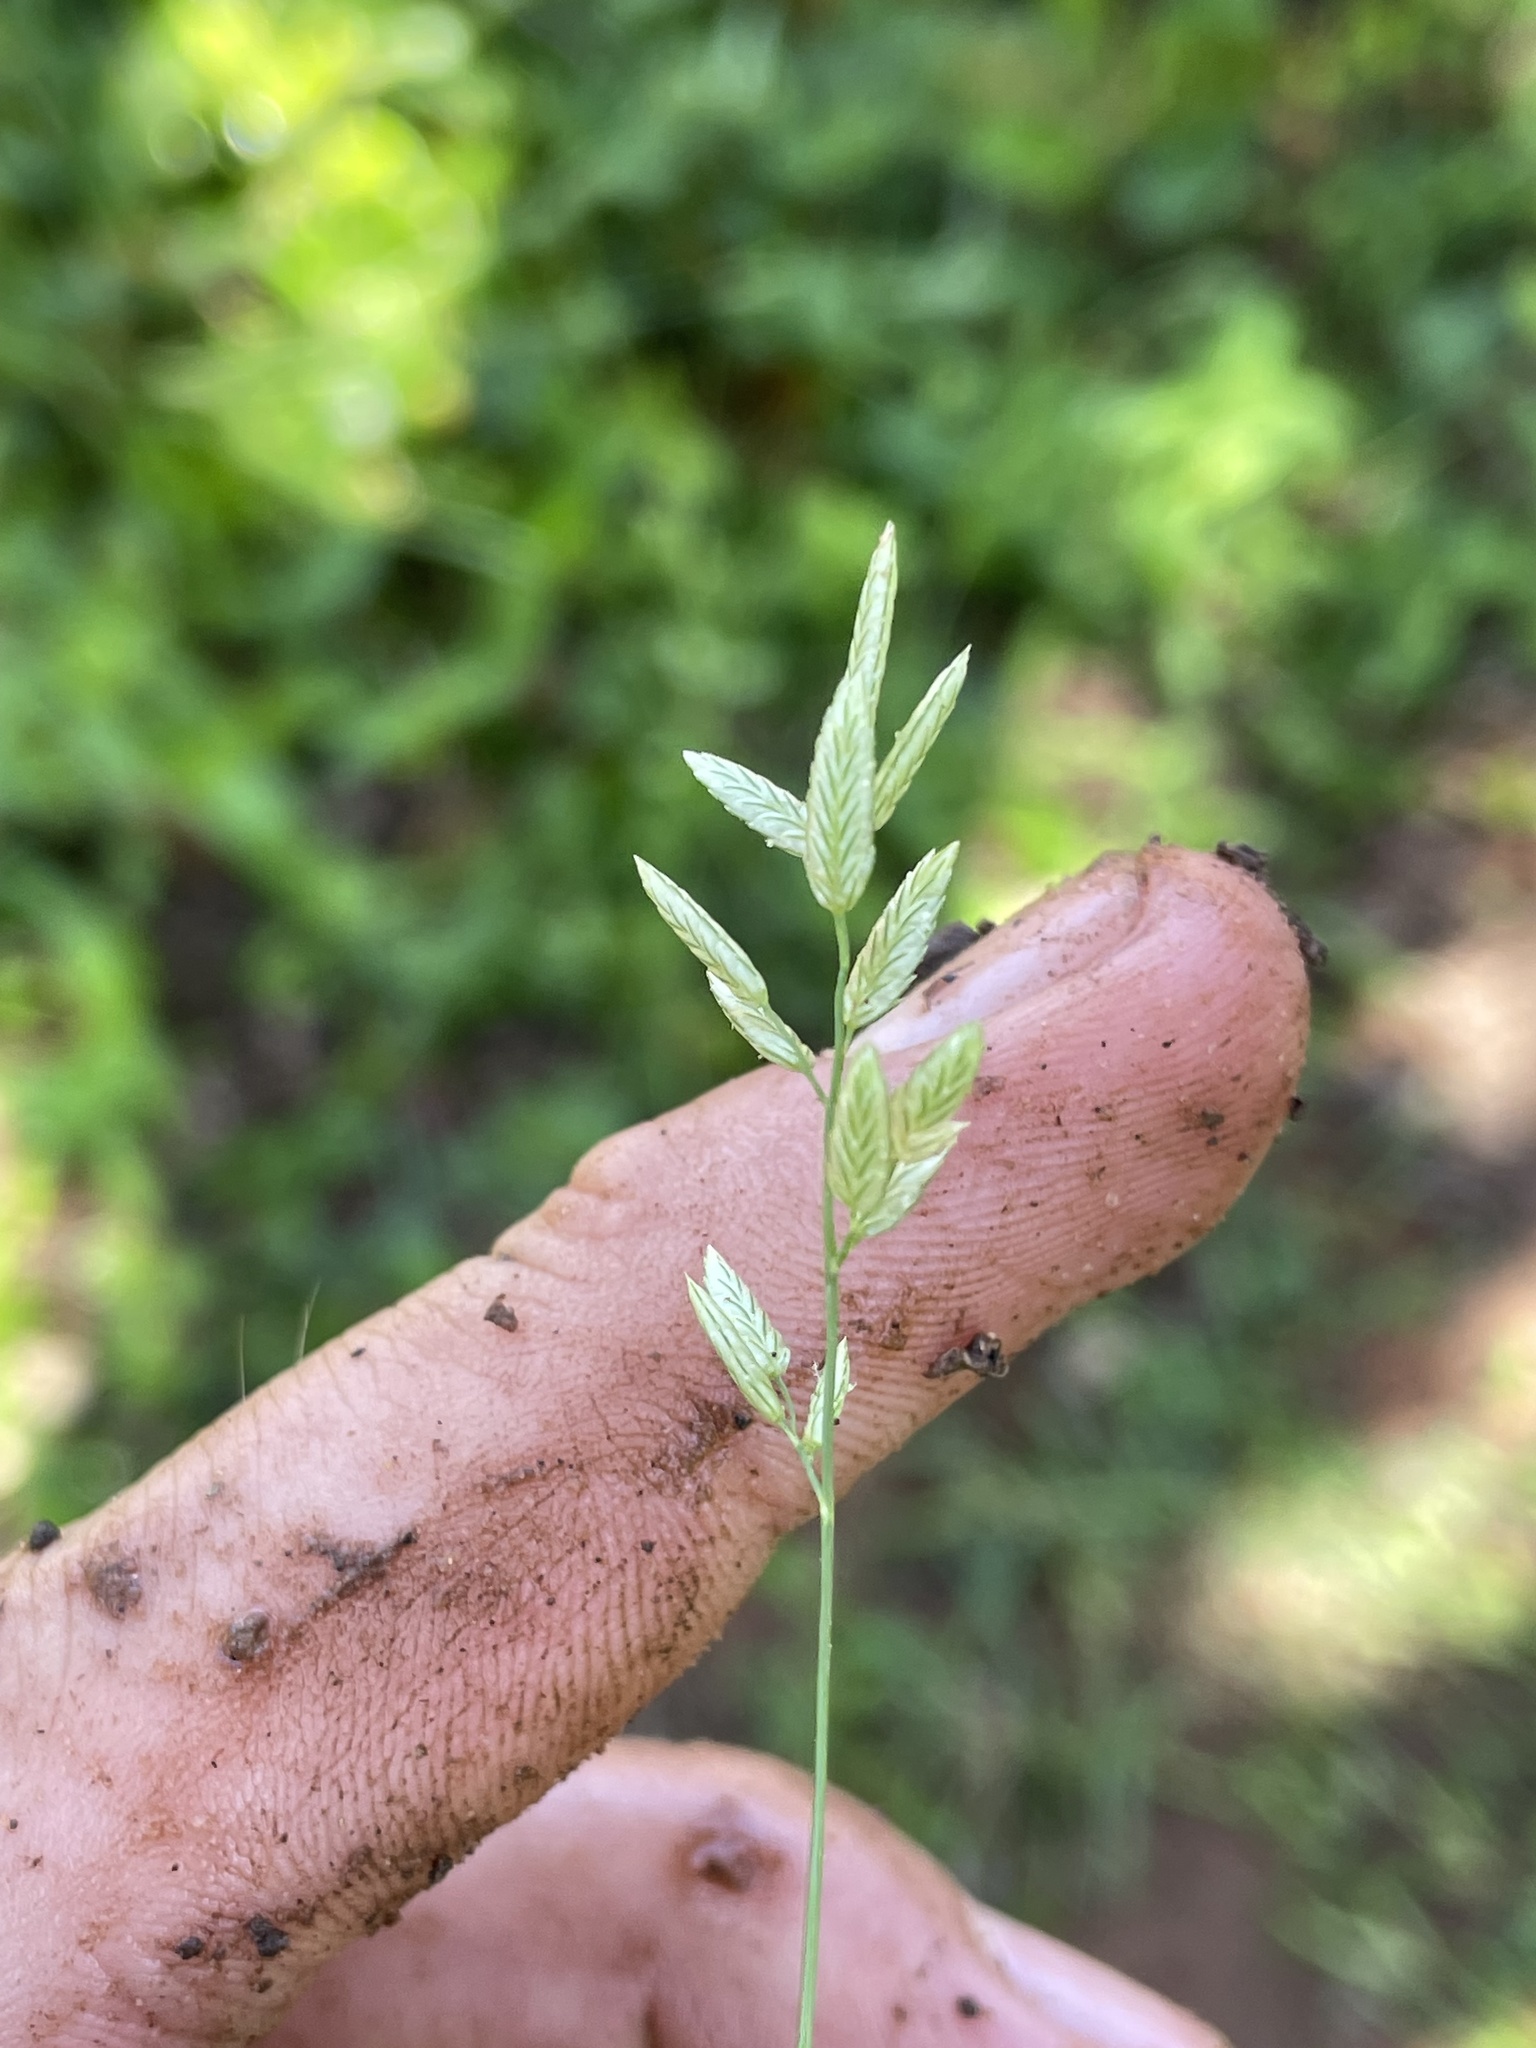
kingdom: Plantae
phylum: Tracheophyta
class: Liliopsida
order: Poales
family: Poaceae
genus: Eragrostis
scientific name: Eragrostis cilianensis
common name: Stinkgrass
